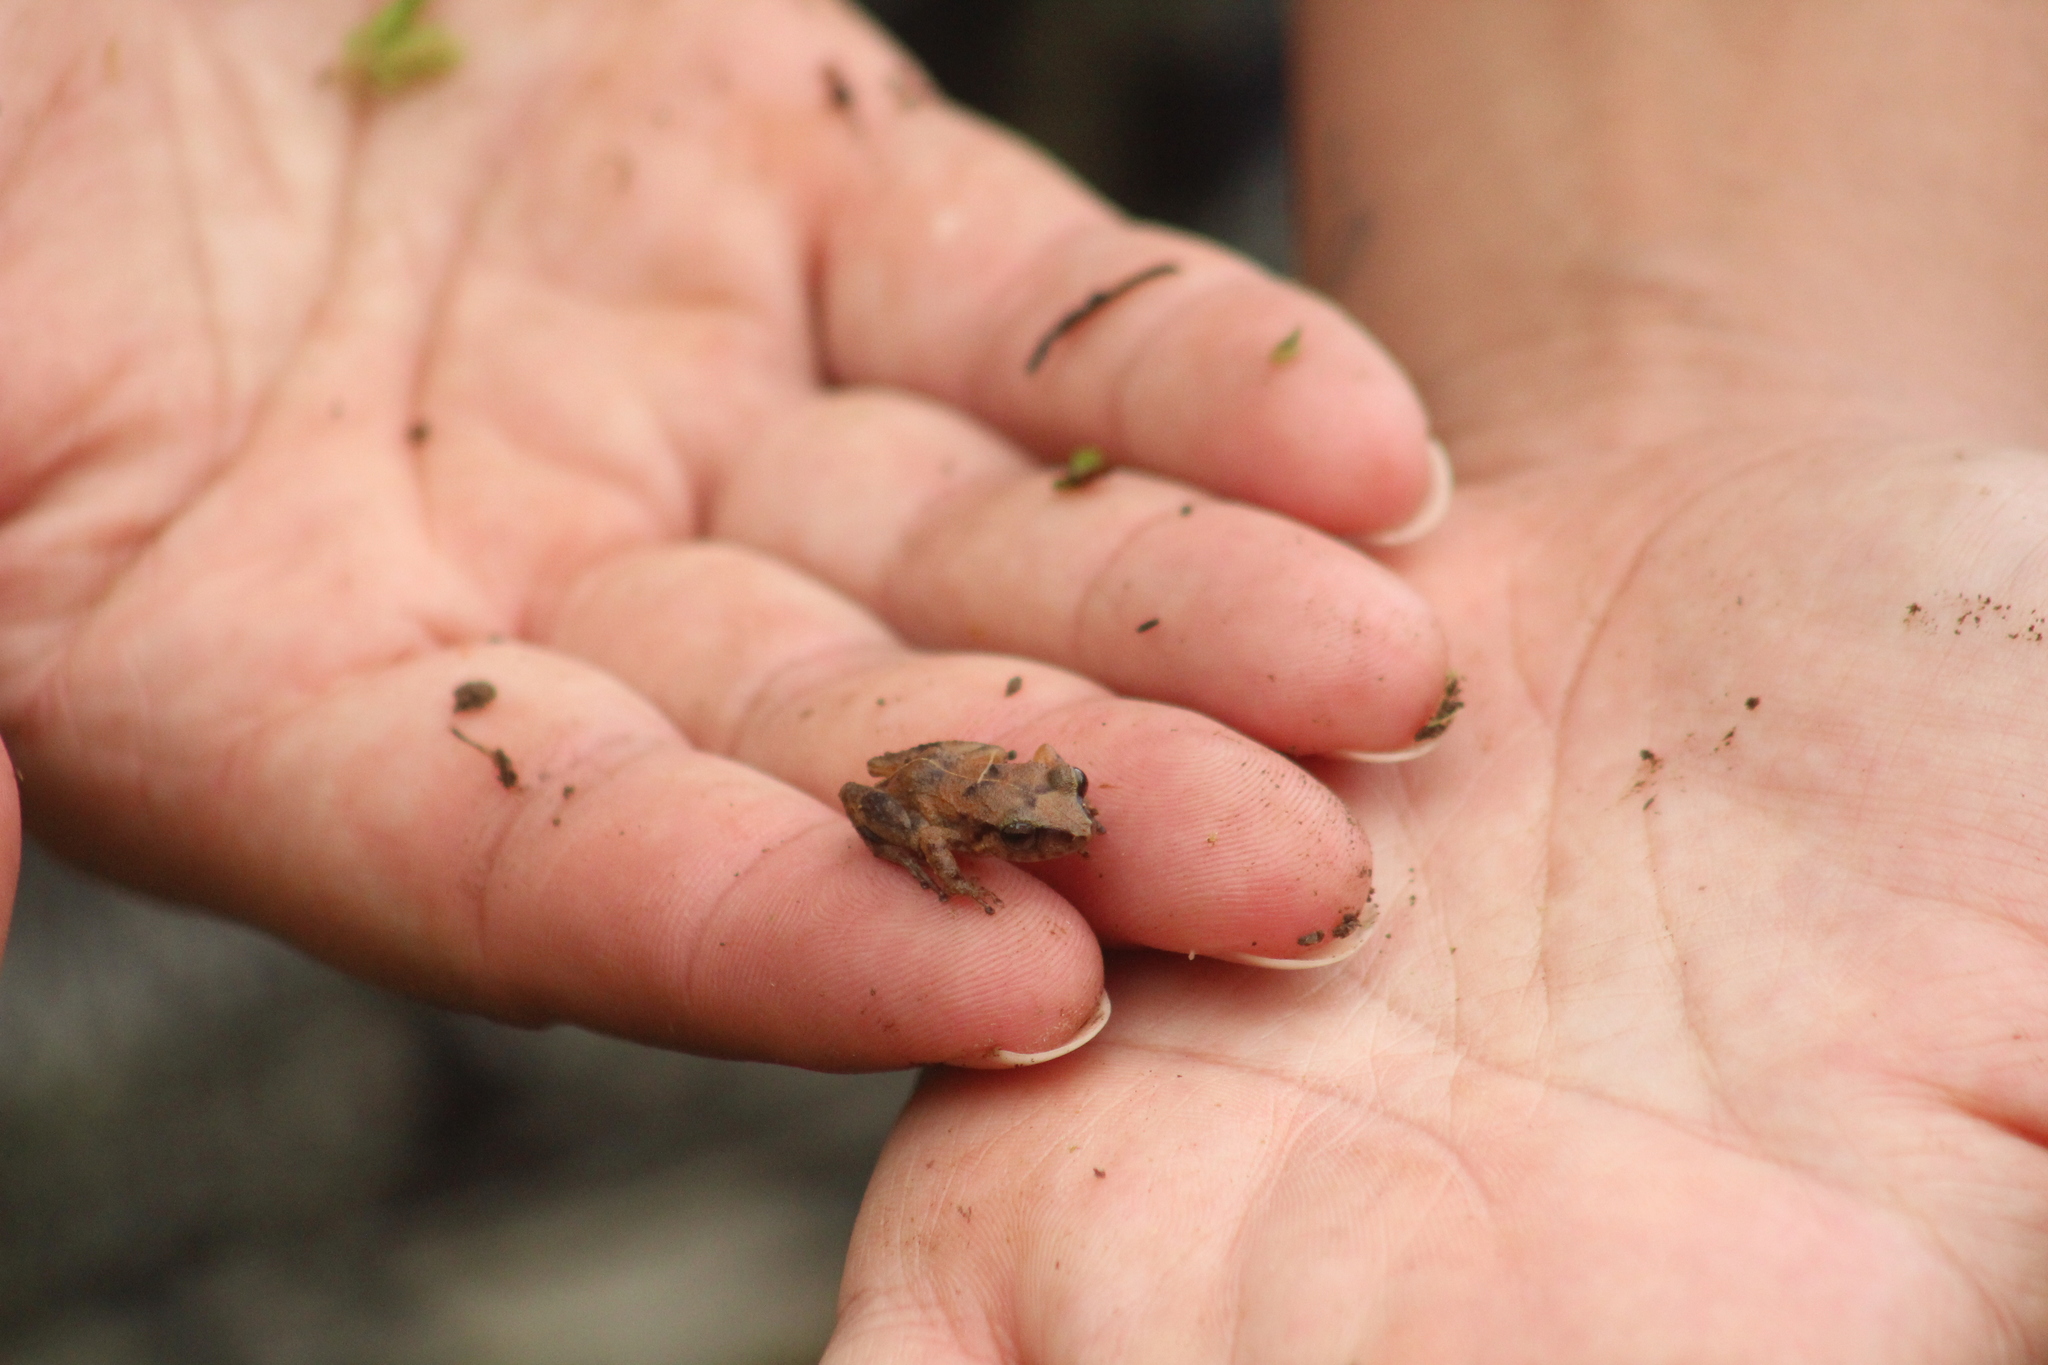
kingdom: Animalia
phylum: Chordata
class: Amphibia
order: Anura
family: Eleutherodactylidae
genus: Eleutherodactylus
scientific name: Eleutherodactylus montserratae
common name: Montserrat whistling frog
